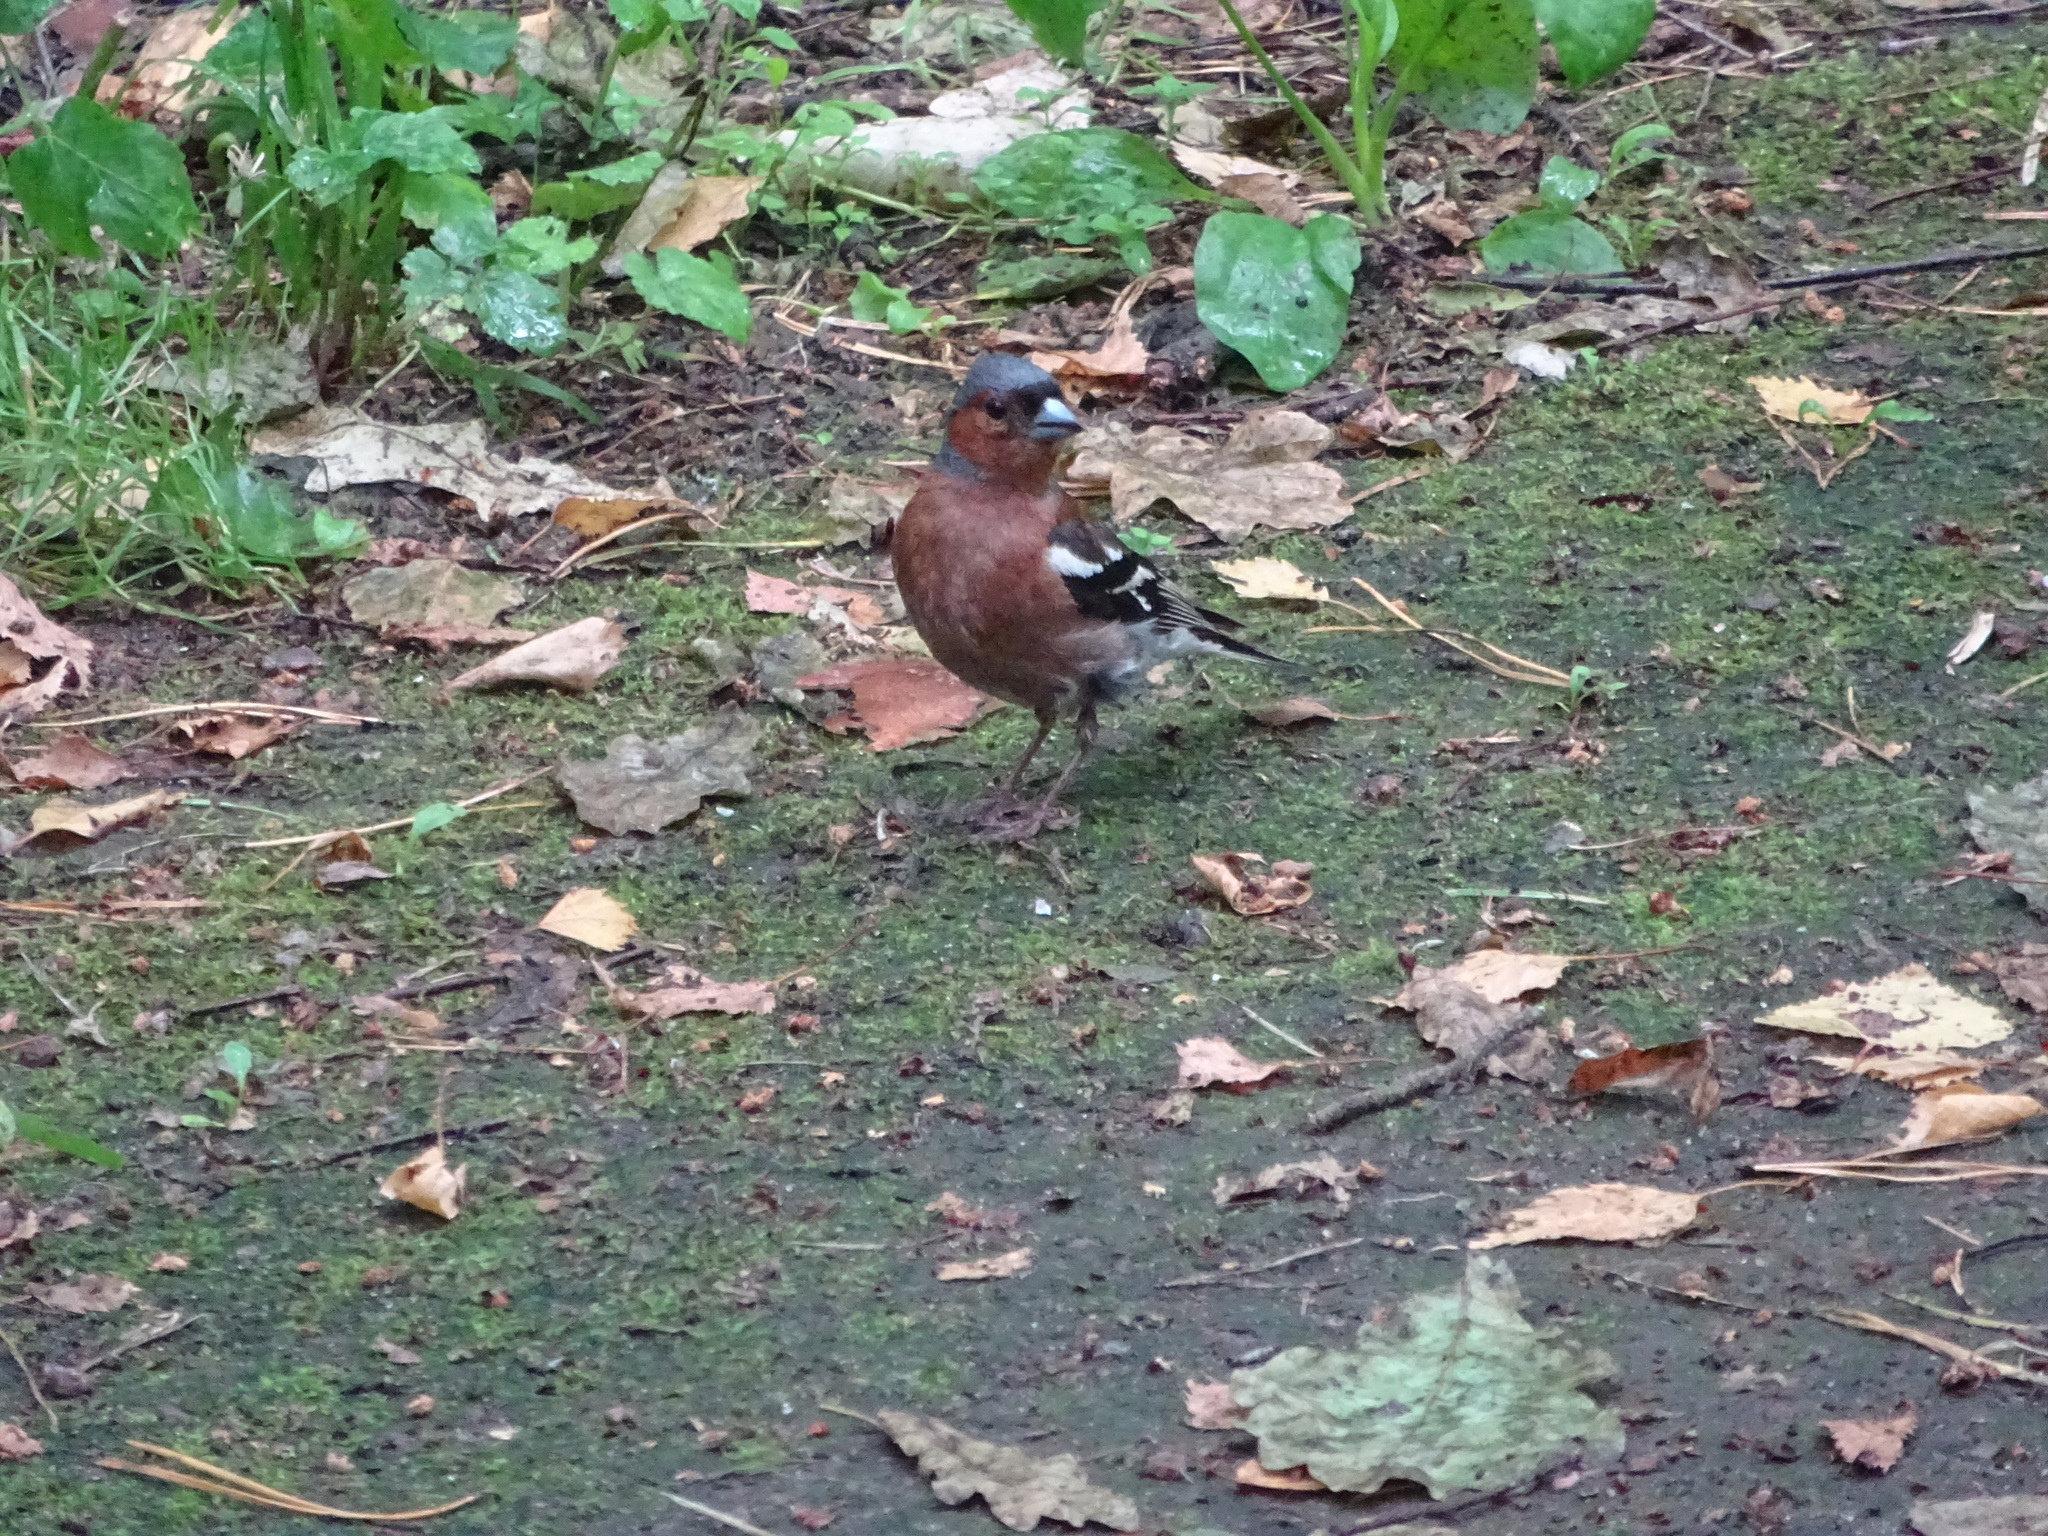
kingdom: Animalia
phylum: Chordata
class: Aves
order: Passeriformes
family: Fringillidae
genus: Fringilla
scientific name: Fringilla coelebs
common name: Common chaffinch
